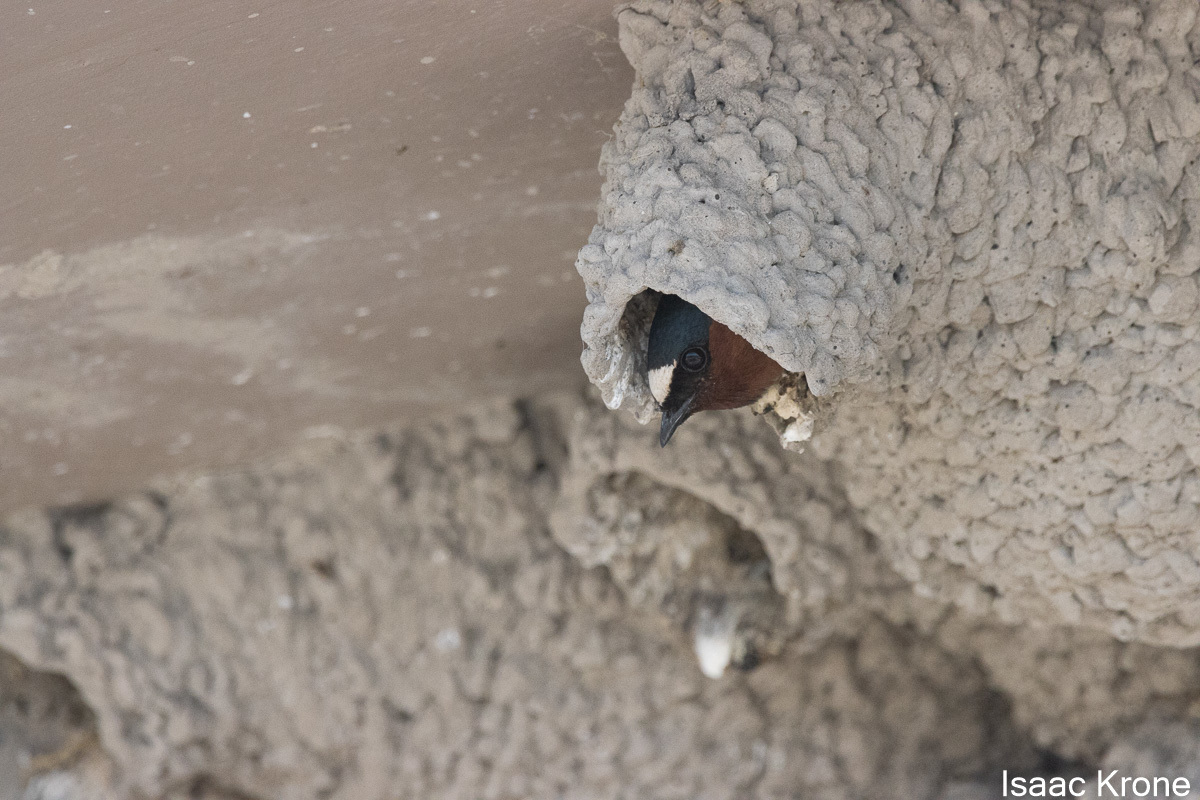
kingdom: Animalia
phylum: Chordata
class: Aves
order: Passeriformes
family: Hirundinidae
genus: Petrochelidon
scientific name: Petrochelidon pyrrhonota
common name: American cliff swallow
